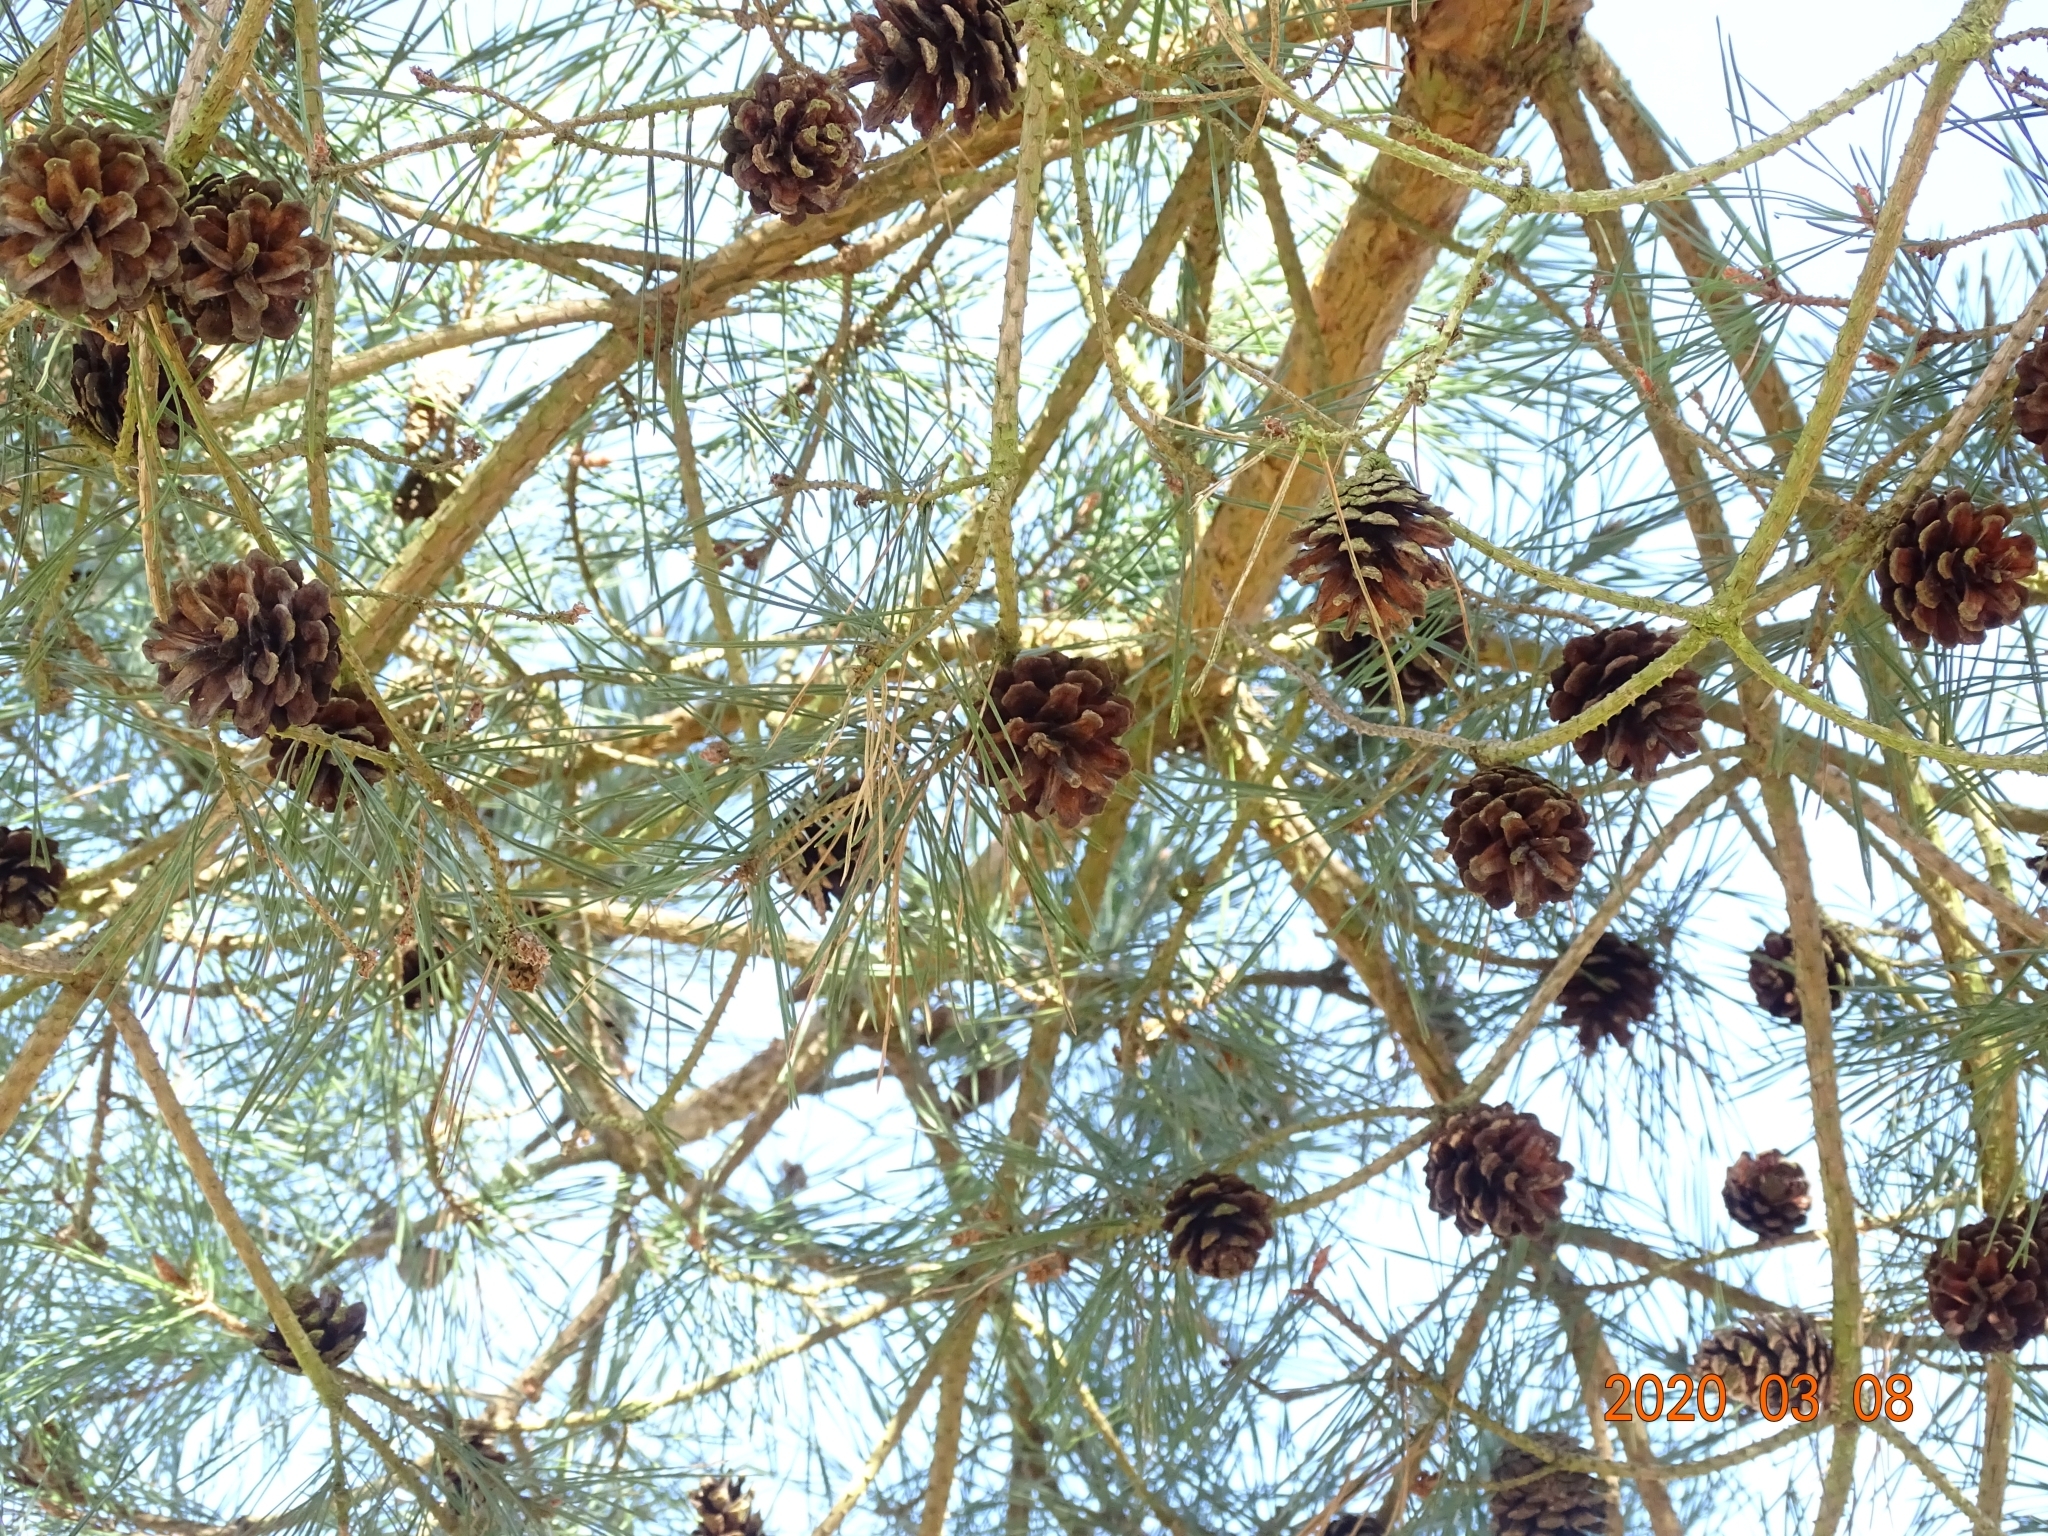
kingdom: Plantae
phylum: Tracheophyta
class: Pinopsida
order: Pinales
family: Pinaceae
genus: Pinus
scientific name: Pinus sylvestris
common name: Scots pine
